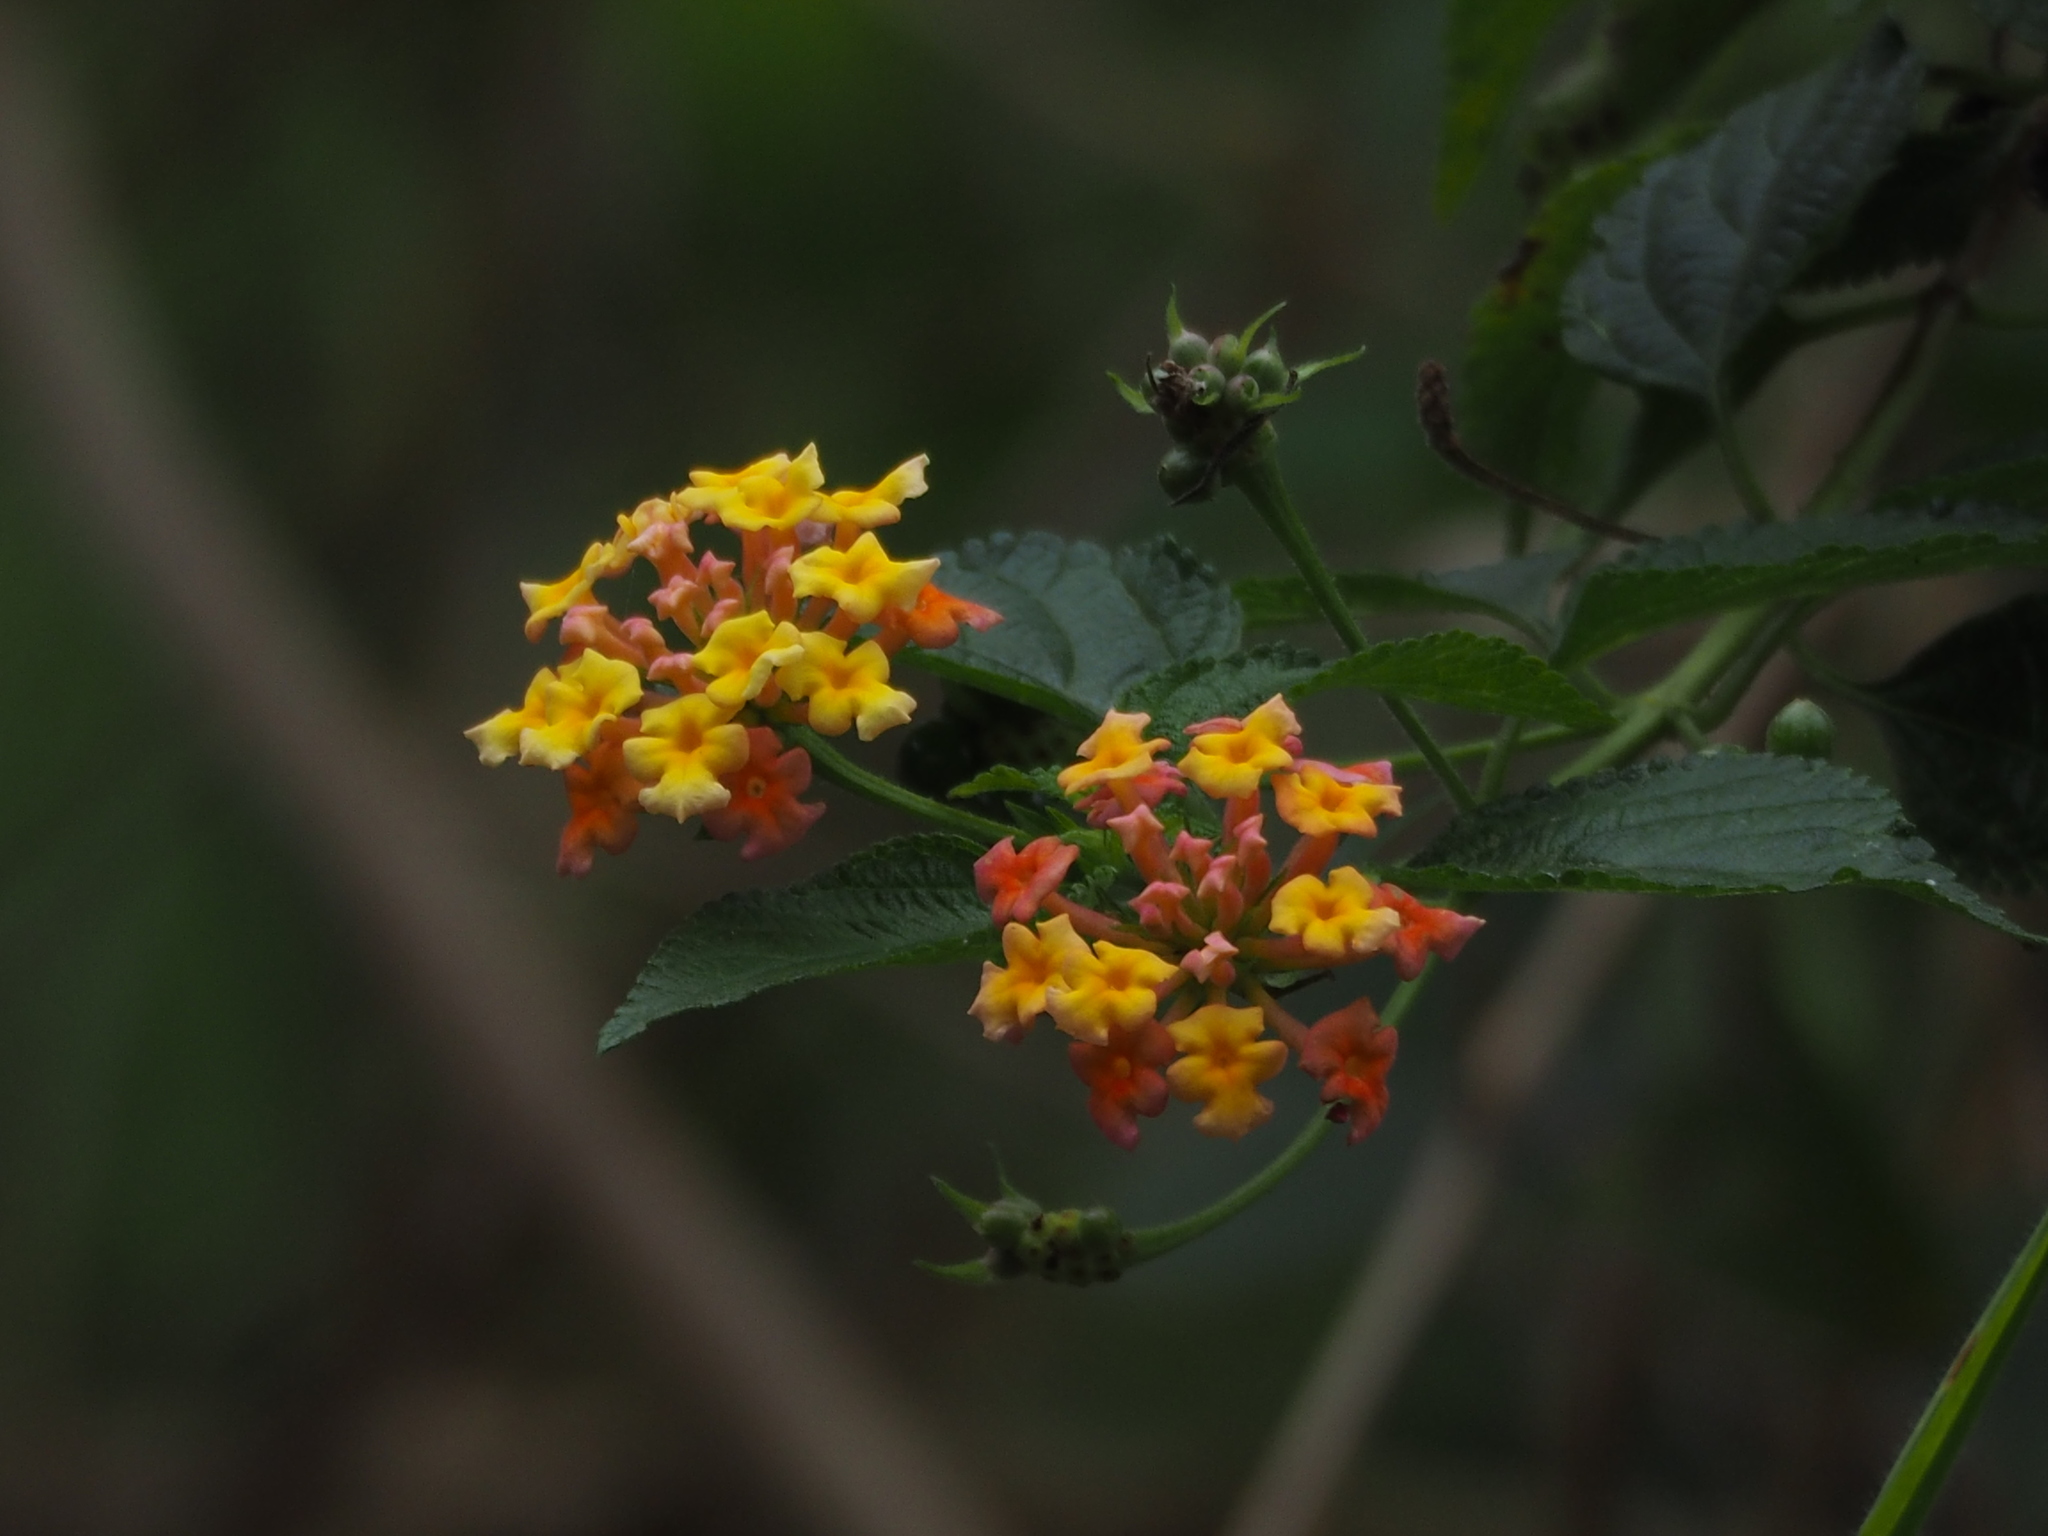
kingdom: Plantae
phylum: Tracheophyta
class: Magnoliopsida
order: Lamiales
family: Verbenaceae
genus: Lantana
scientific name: Lantana camara
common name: Lantana
